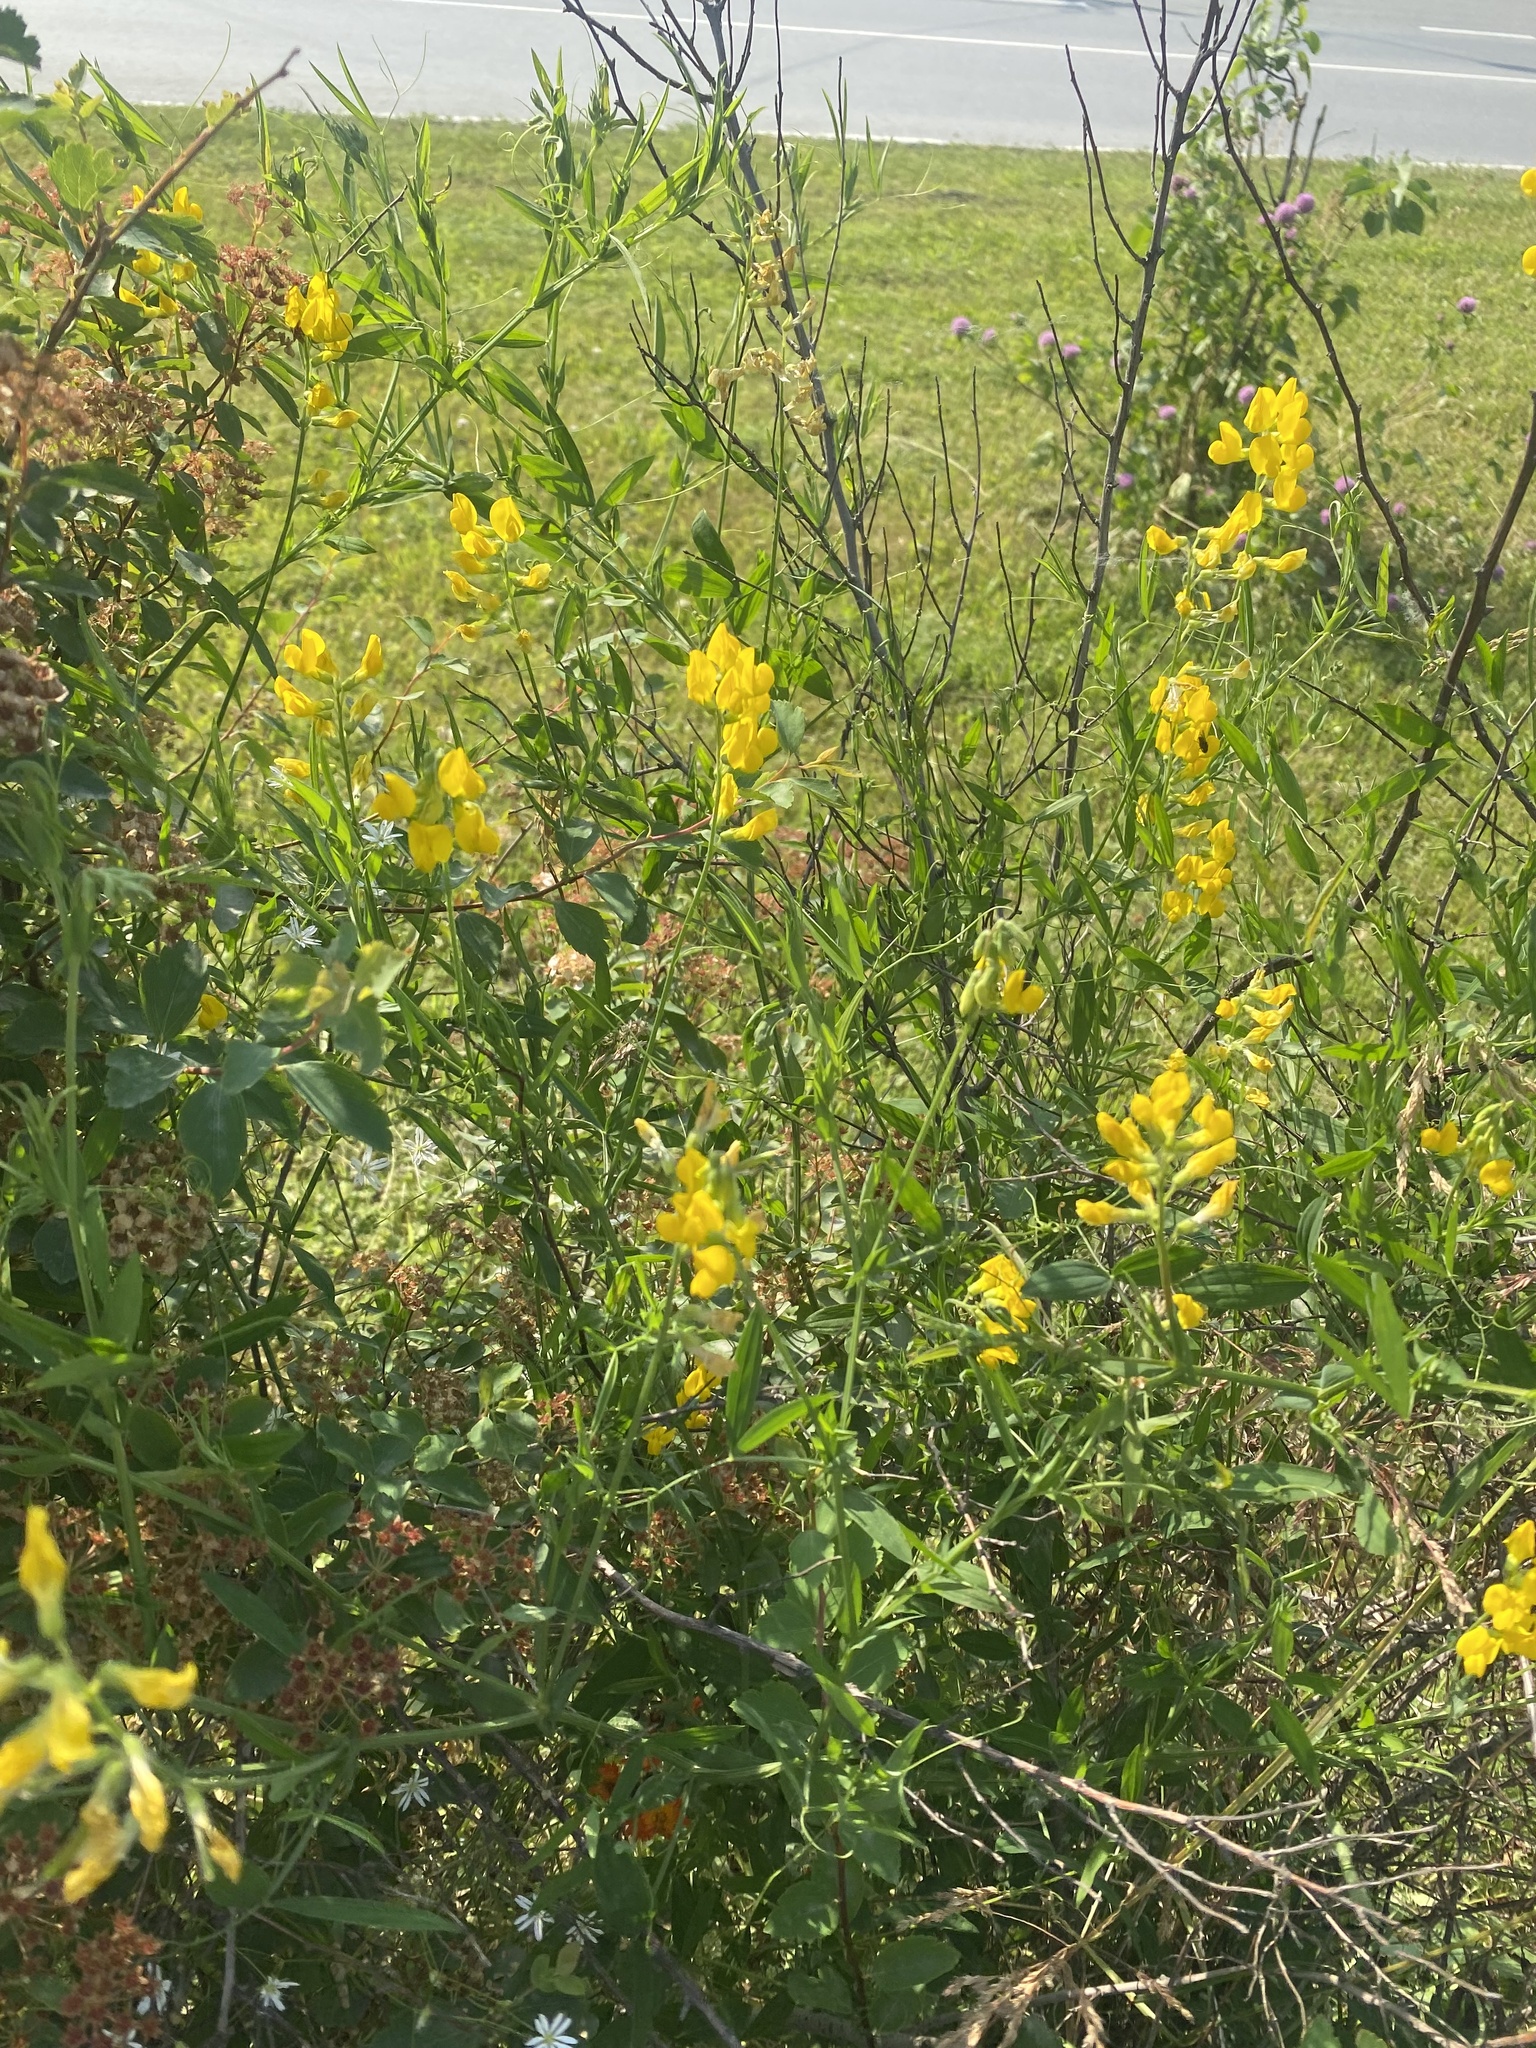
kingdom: Plantae
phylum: Tracheophyta
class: Magnoliopsida
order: Fabales
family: Fabaceae
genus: Lathyrus
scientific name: Lathyrus pratensis
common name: Meadow vetchling
